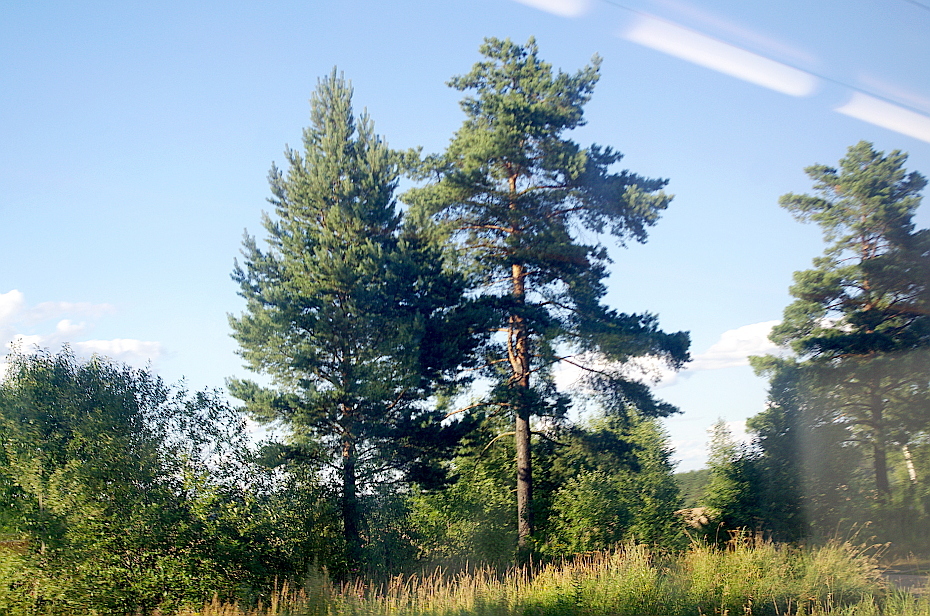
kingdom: Plantae
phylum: Tracheophyta
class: Pinopsida
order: Pinales
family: Pinaceae
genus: Pinus
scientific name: Pinus sylvestris
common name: Scots pine
